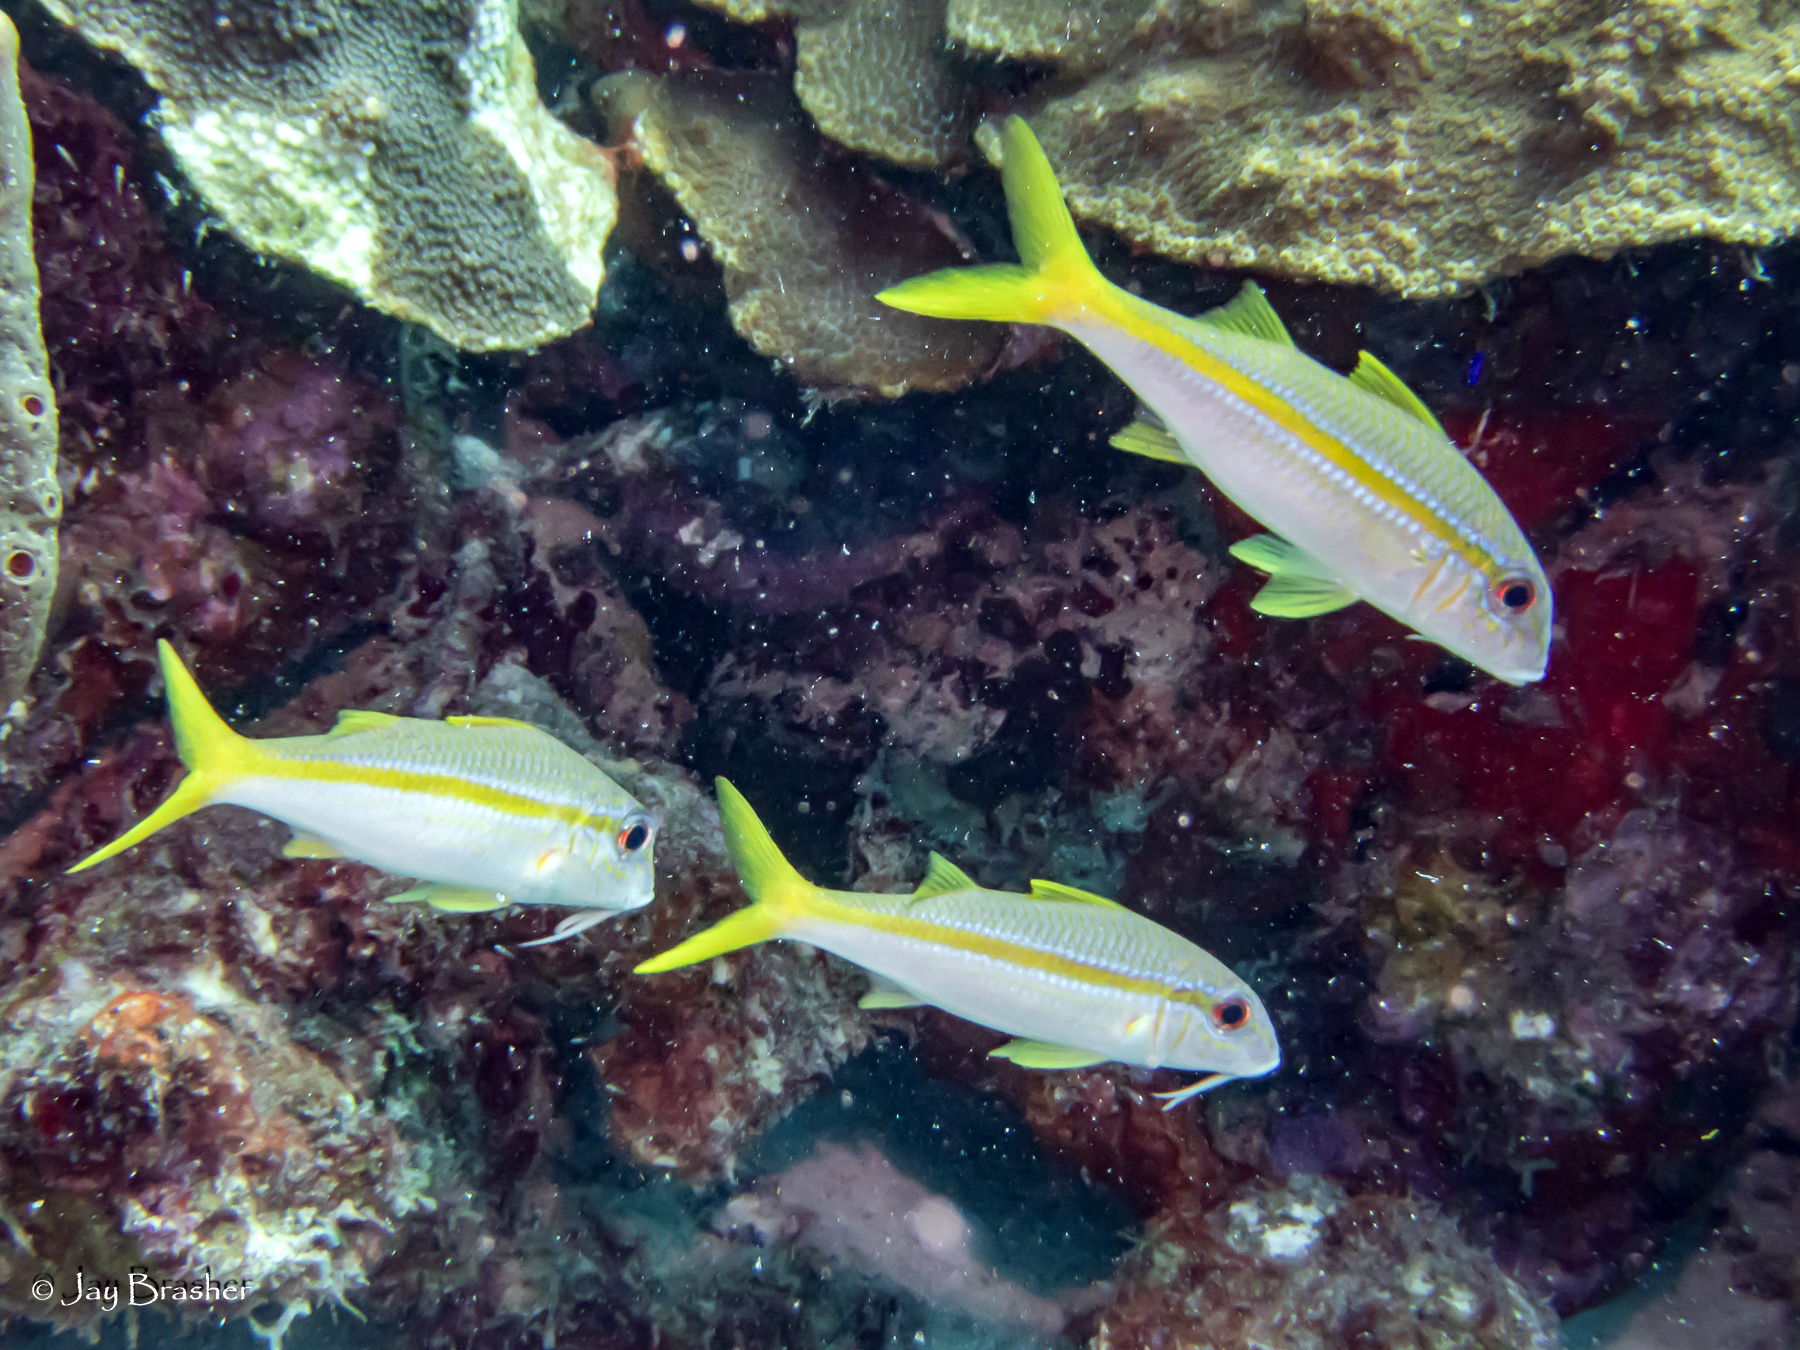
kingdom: Animalia
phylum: Chordata
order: Perciformes
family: Mullidae
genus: Mulloidichthys
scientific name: Mulloidichthys martinicus
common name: Yellow goatfish
